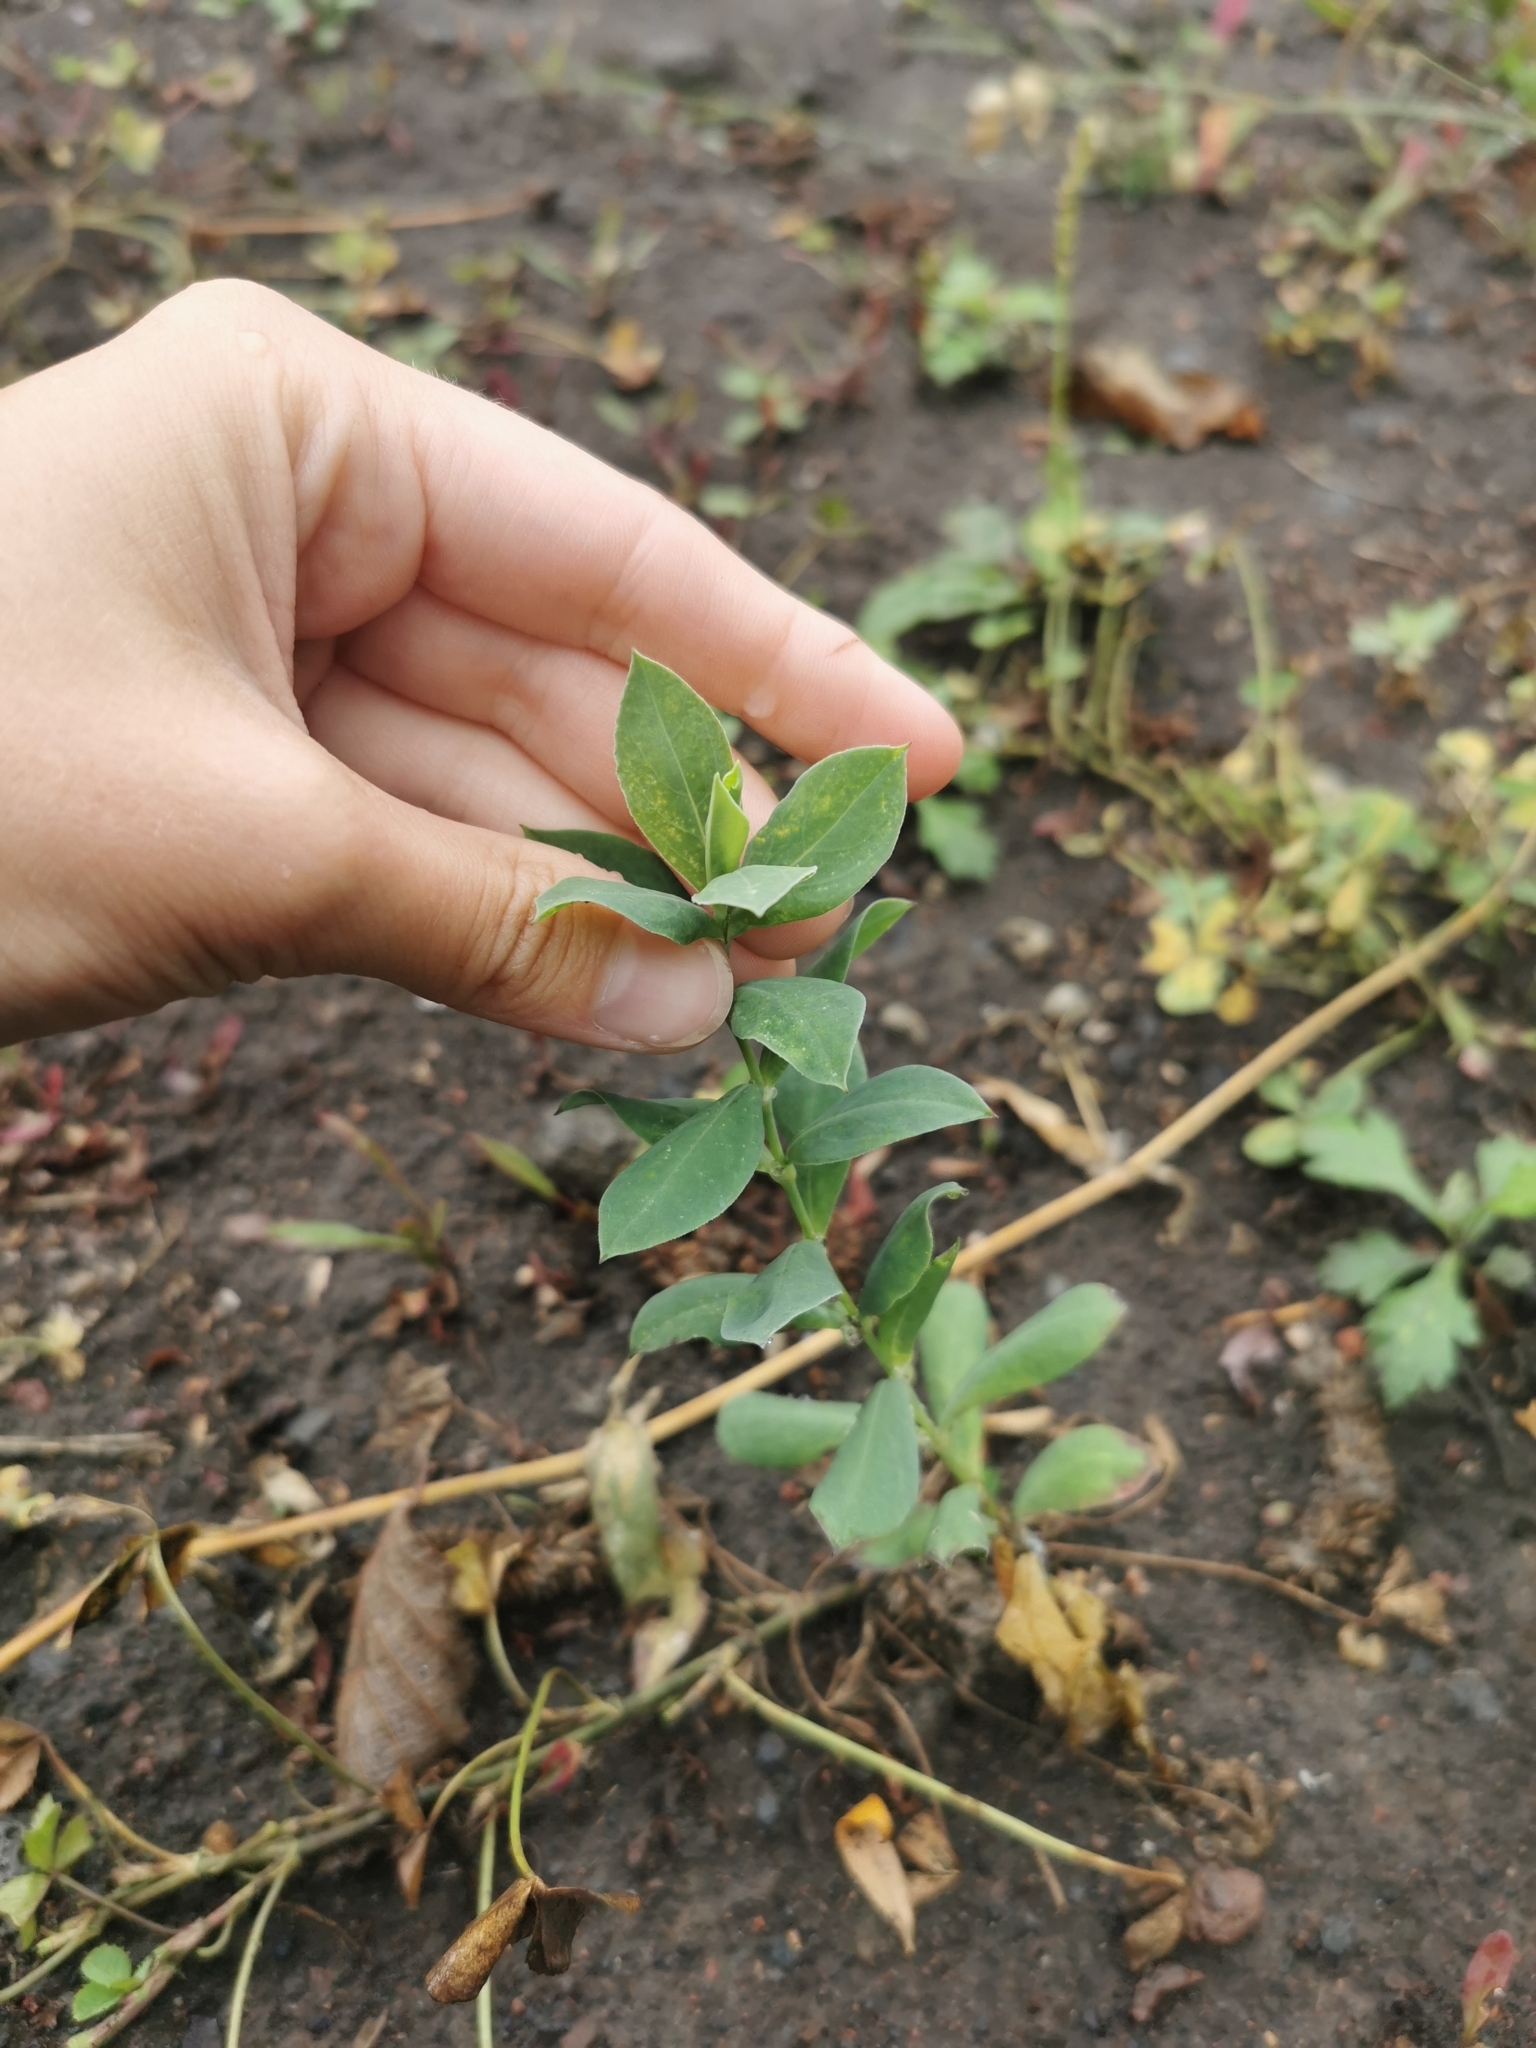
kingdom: Plantae
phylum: Tracheophyta
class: Magnoliopsida
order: Caryophyllales
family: Caryophyllaceae
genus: Silene
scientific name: Silene vulgaris
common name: Bladder campion
